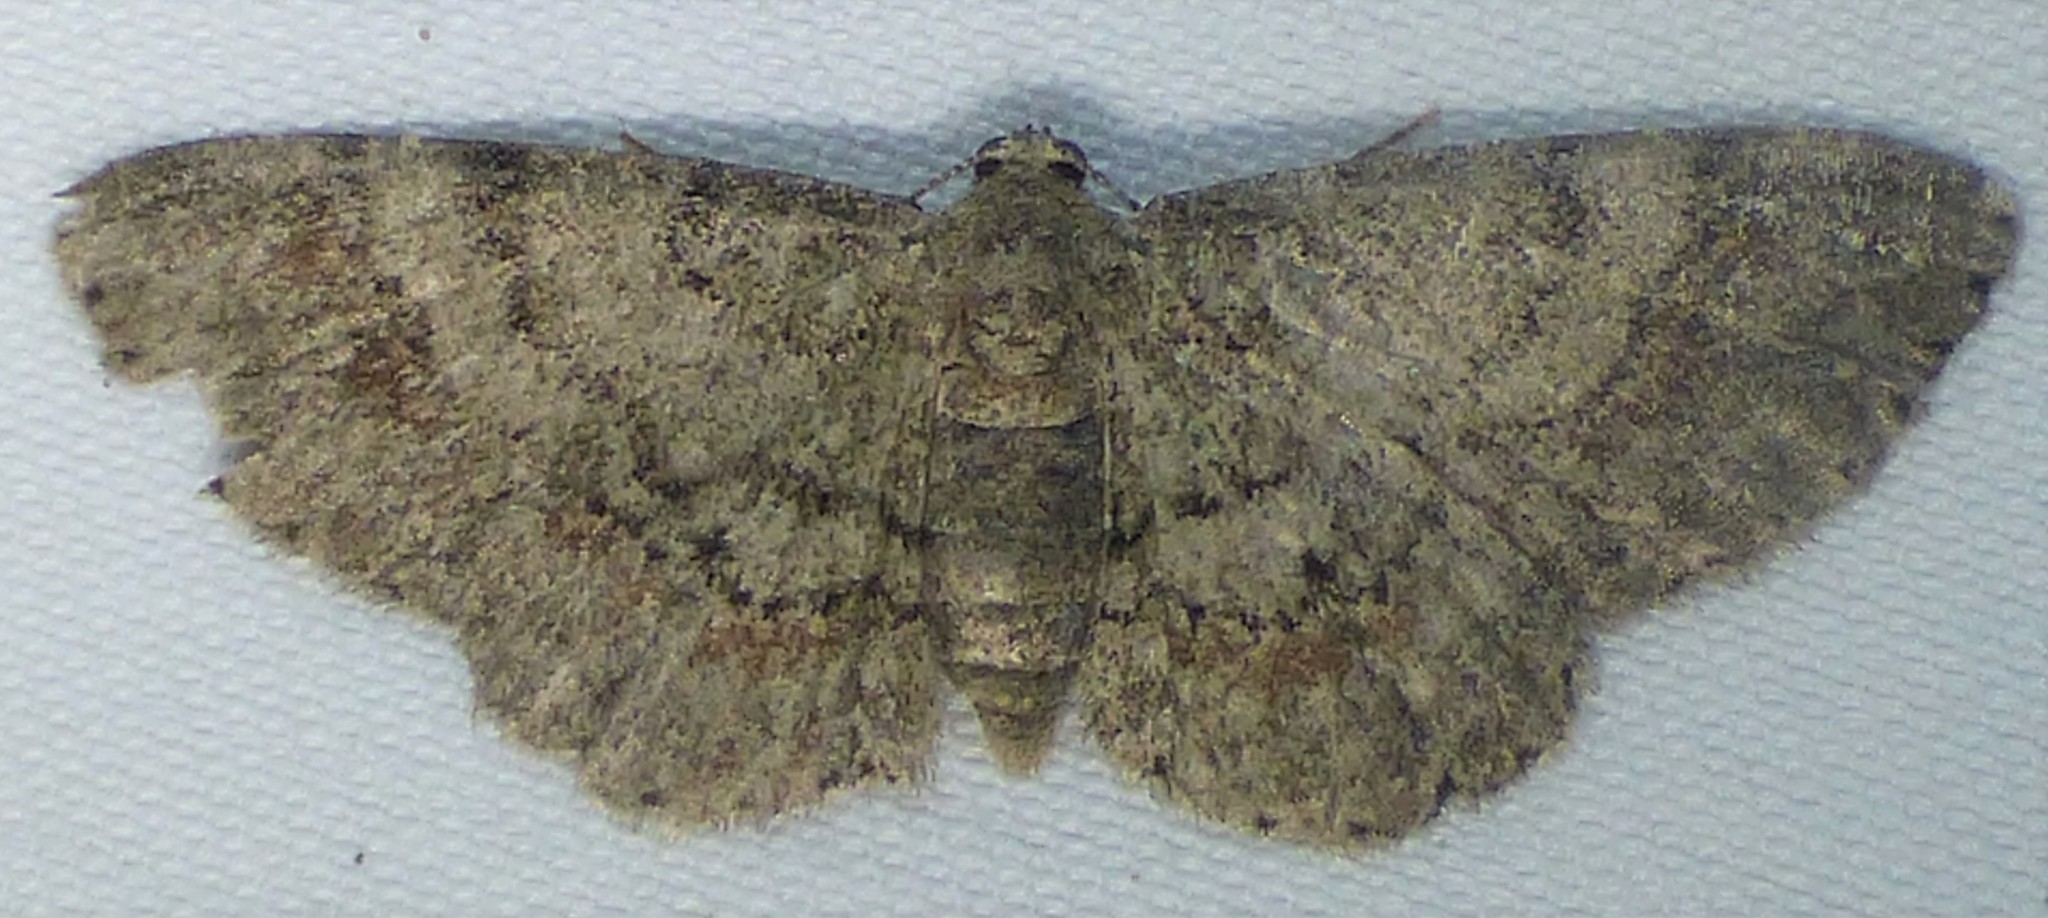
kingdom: Animalia
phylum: Arthropoda
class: Insecta
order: Lepidoptera
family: Geometridae
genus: Glenoides
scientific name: Glenoides texanaria
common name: Texas gray
